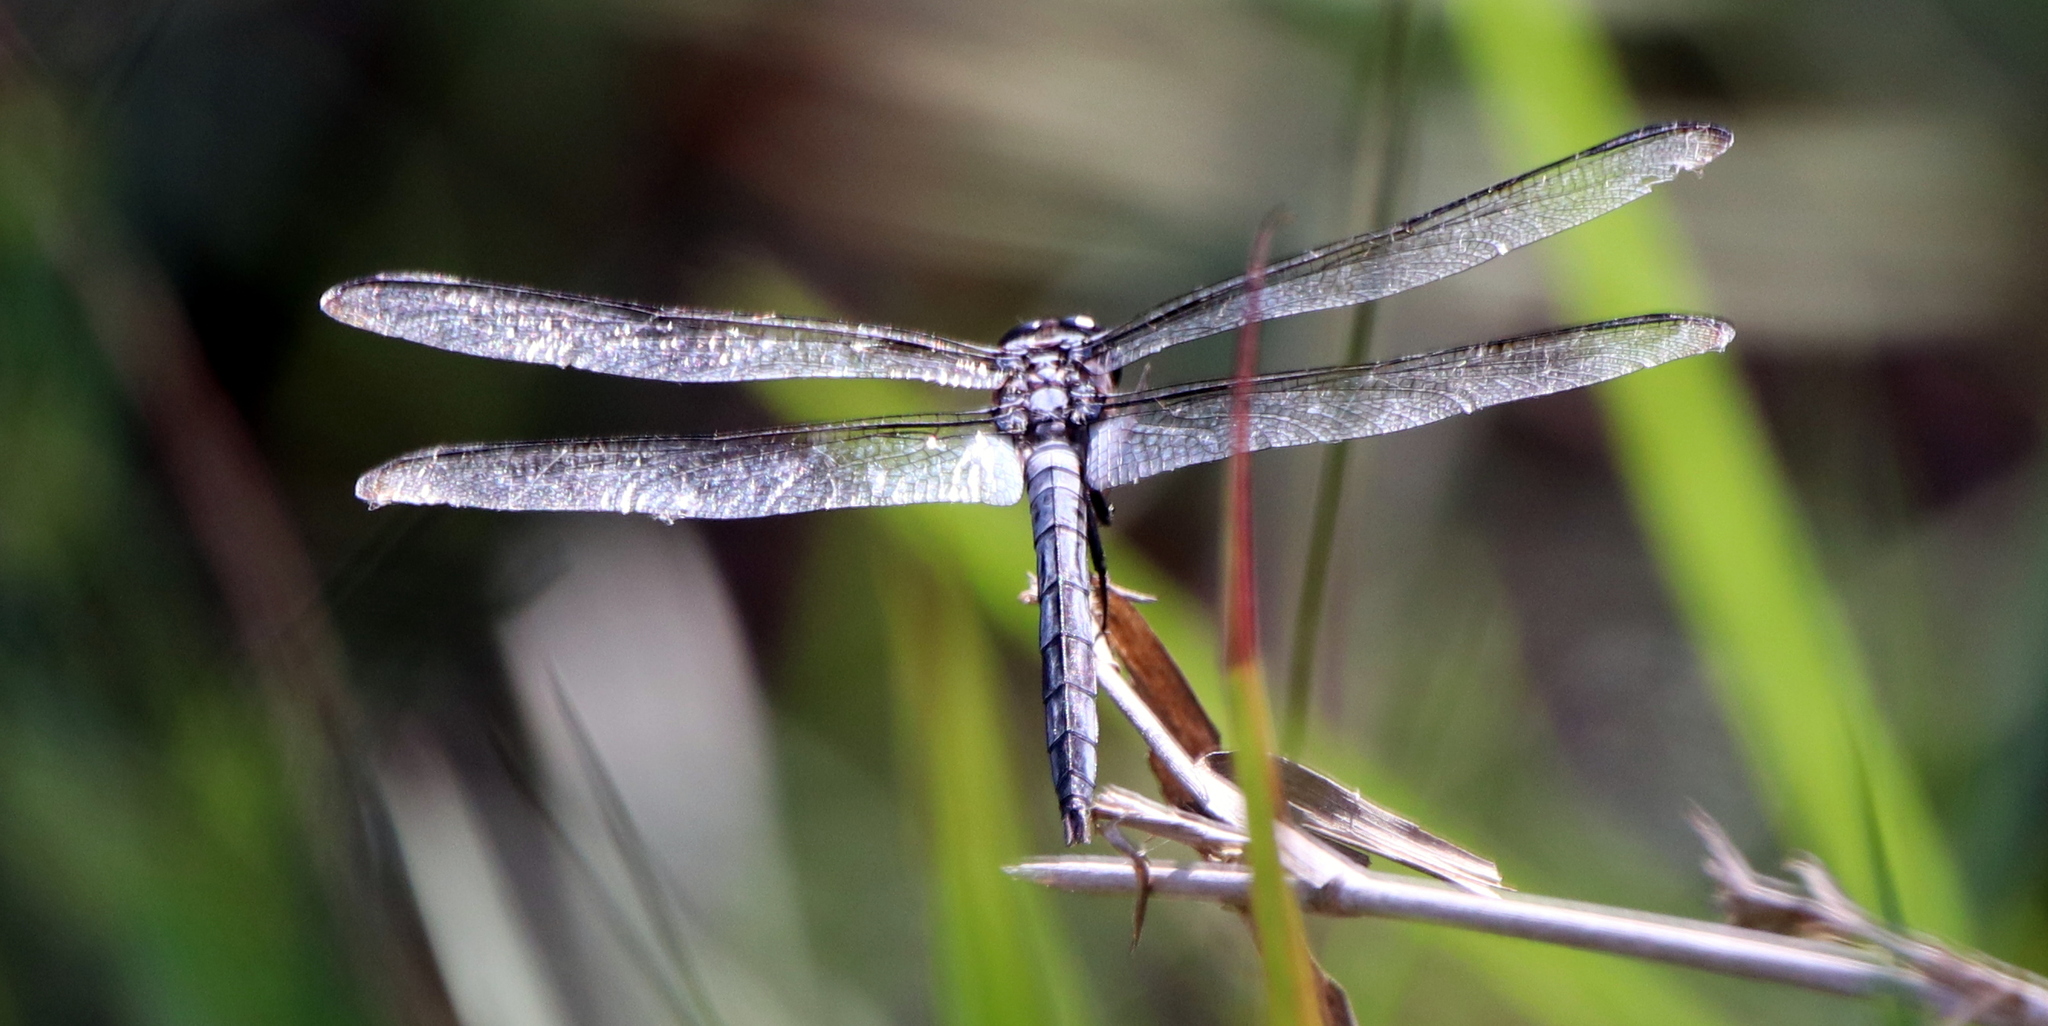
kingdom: Animalia
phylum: Arthropoda
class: Insecta
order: Odonata
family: Libellulidae
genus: Libellula
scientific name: Libellula axilena
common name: Bar-winged skimmer
